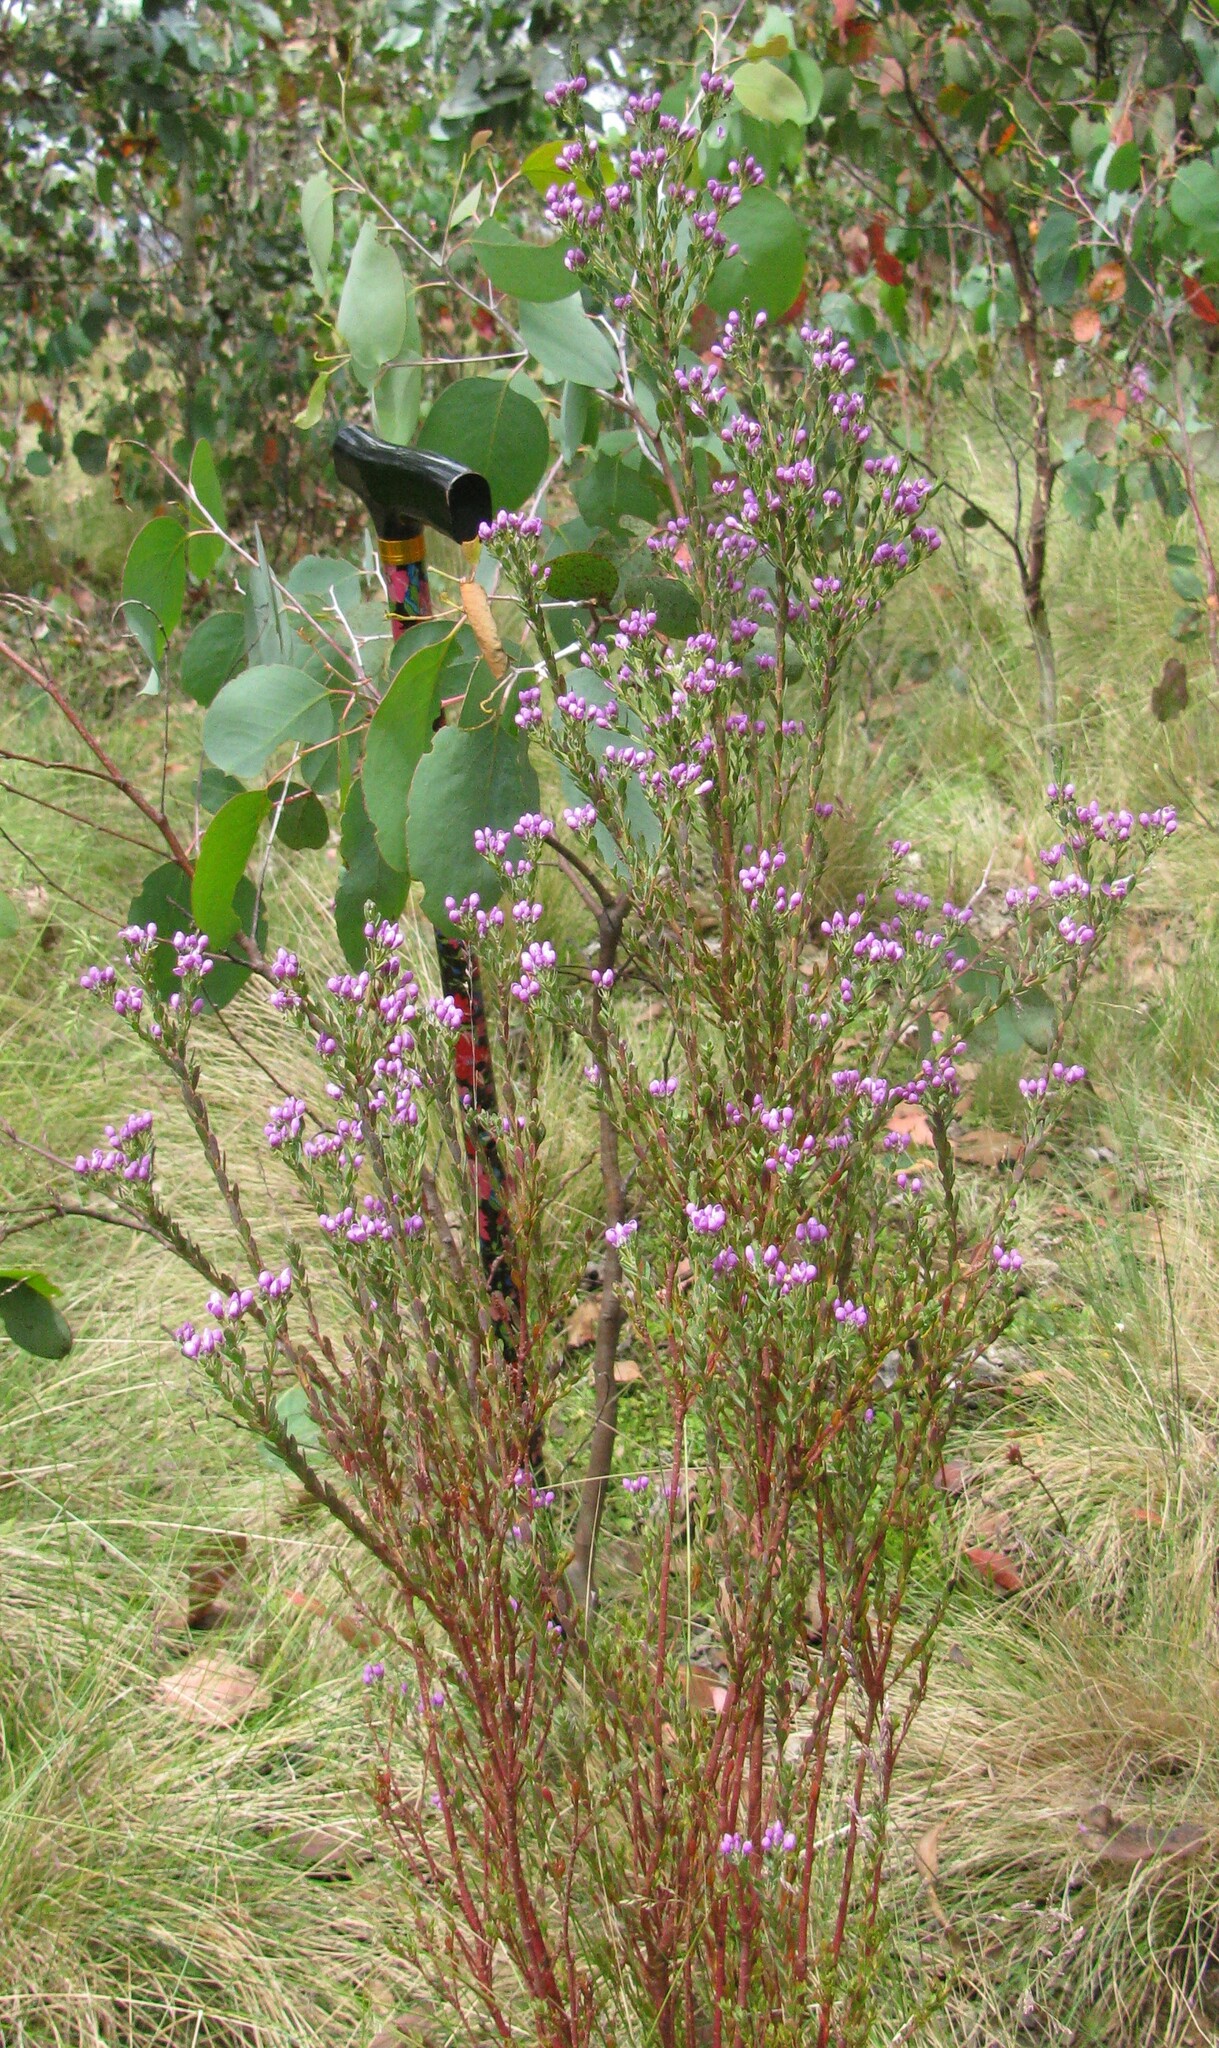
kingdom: Plantae
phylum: Tracheophyta
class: Magnoliopsida
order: Fabales
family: Polygalaceae
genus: Comesperma
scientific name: Comesperma retusum
